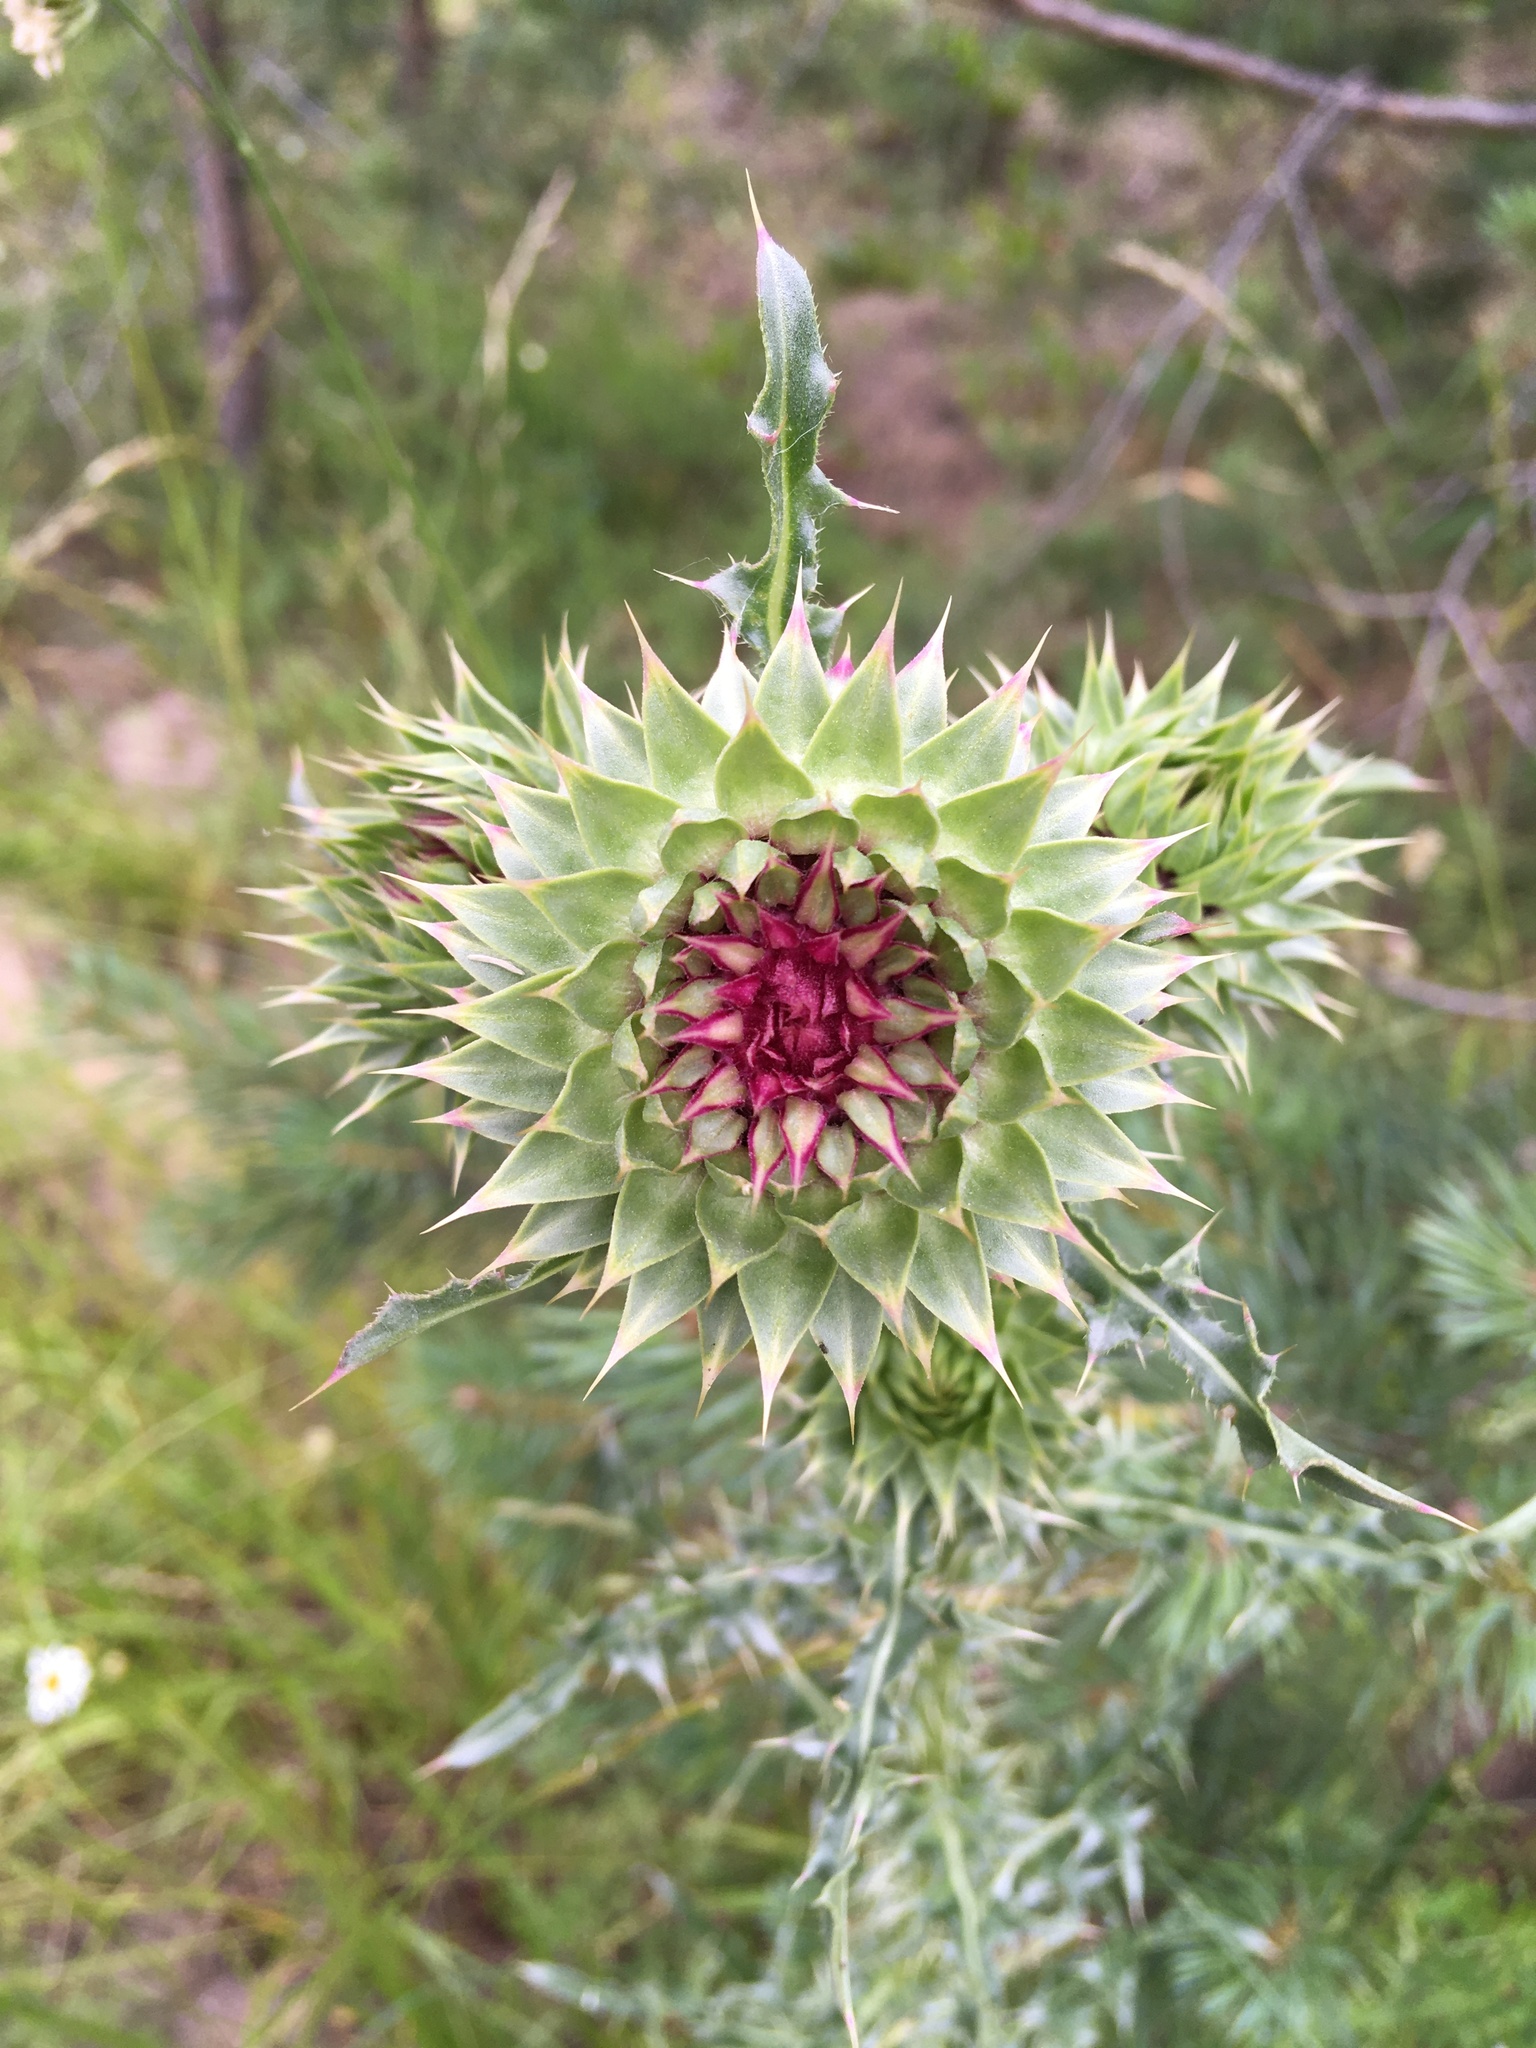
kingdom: Plantae
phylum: Tracheophyta
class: Magnoliopsida
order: Asterales
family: Asteraceae
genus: Carduus
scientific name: Carduus nutans
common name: Musk thistle
